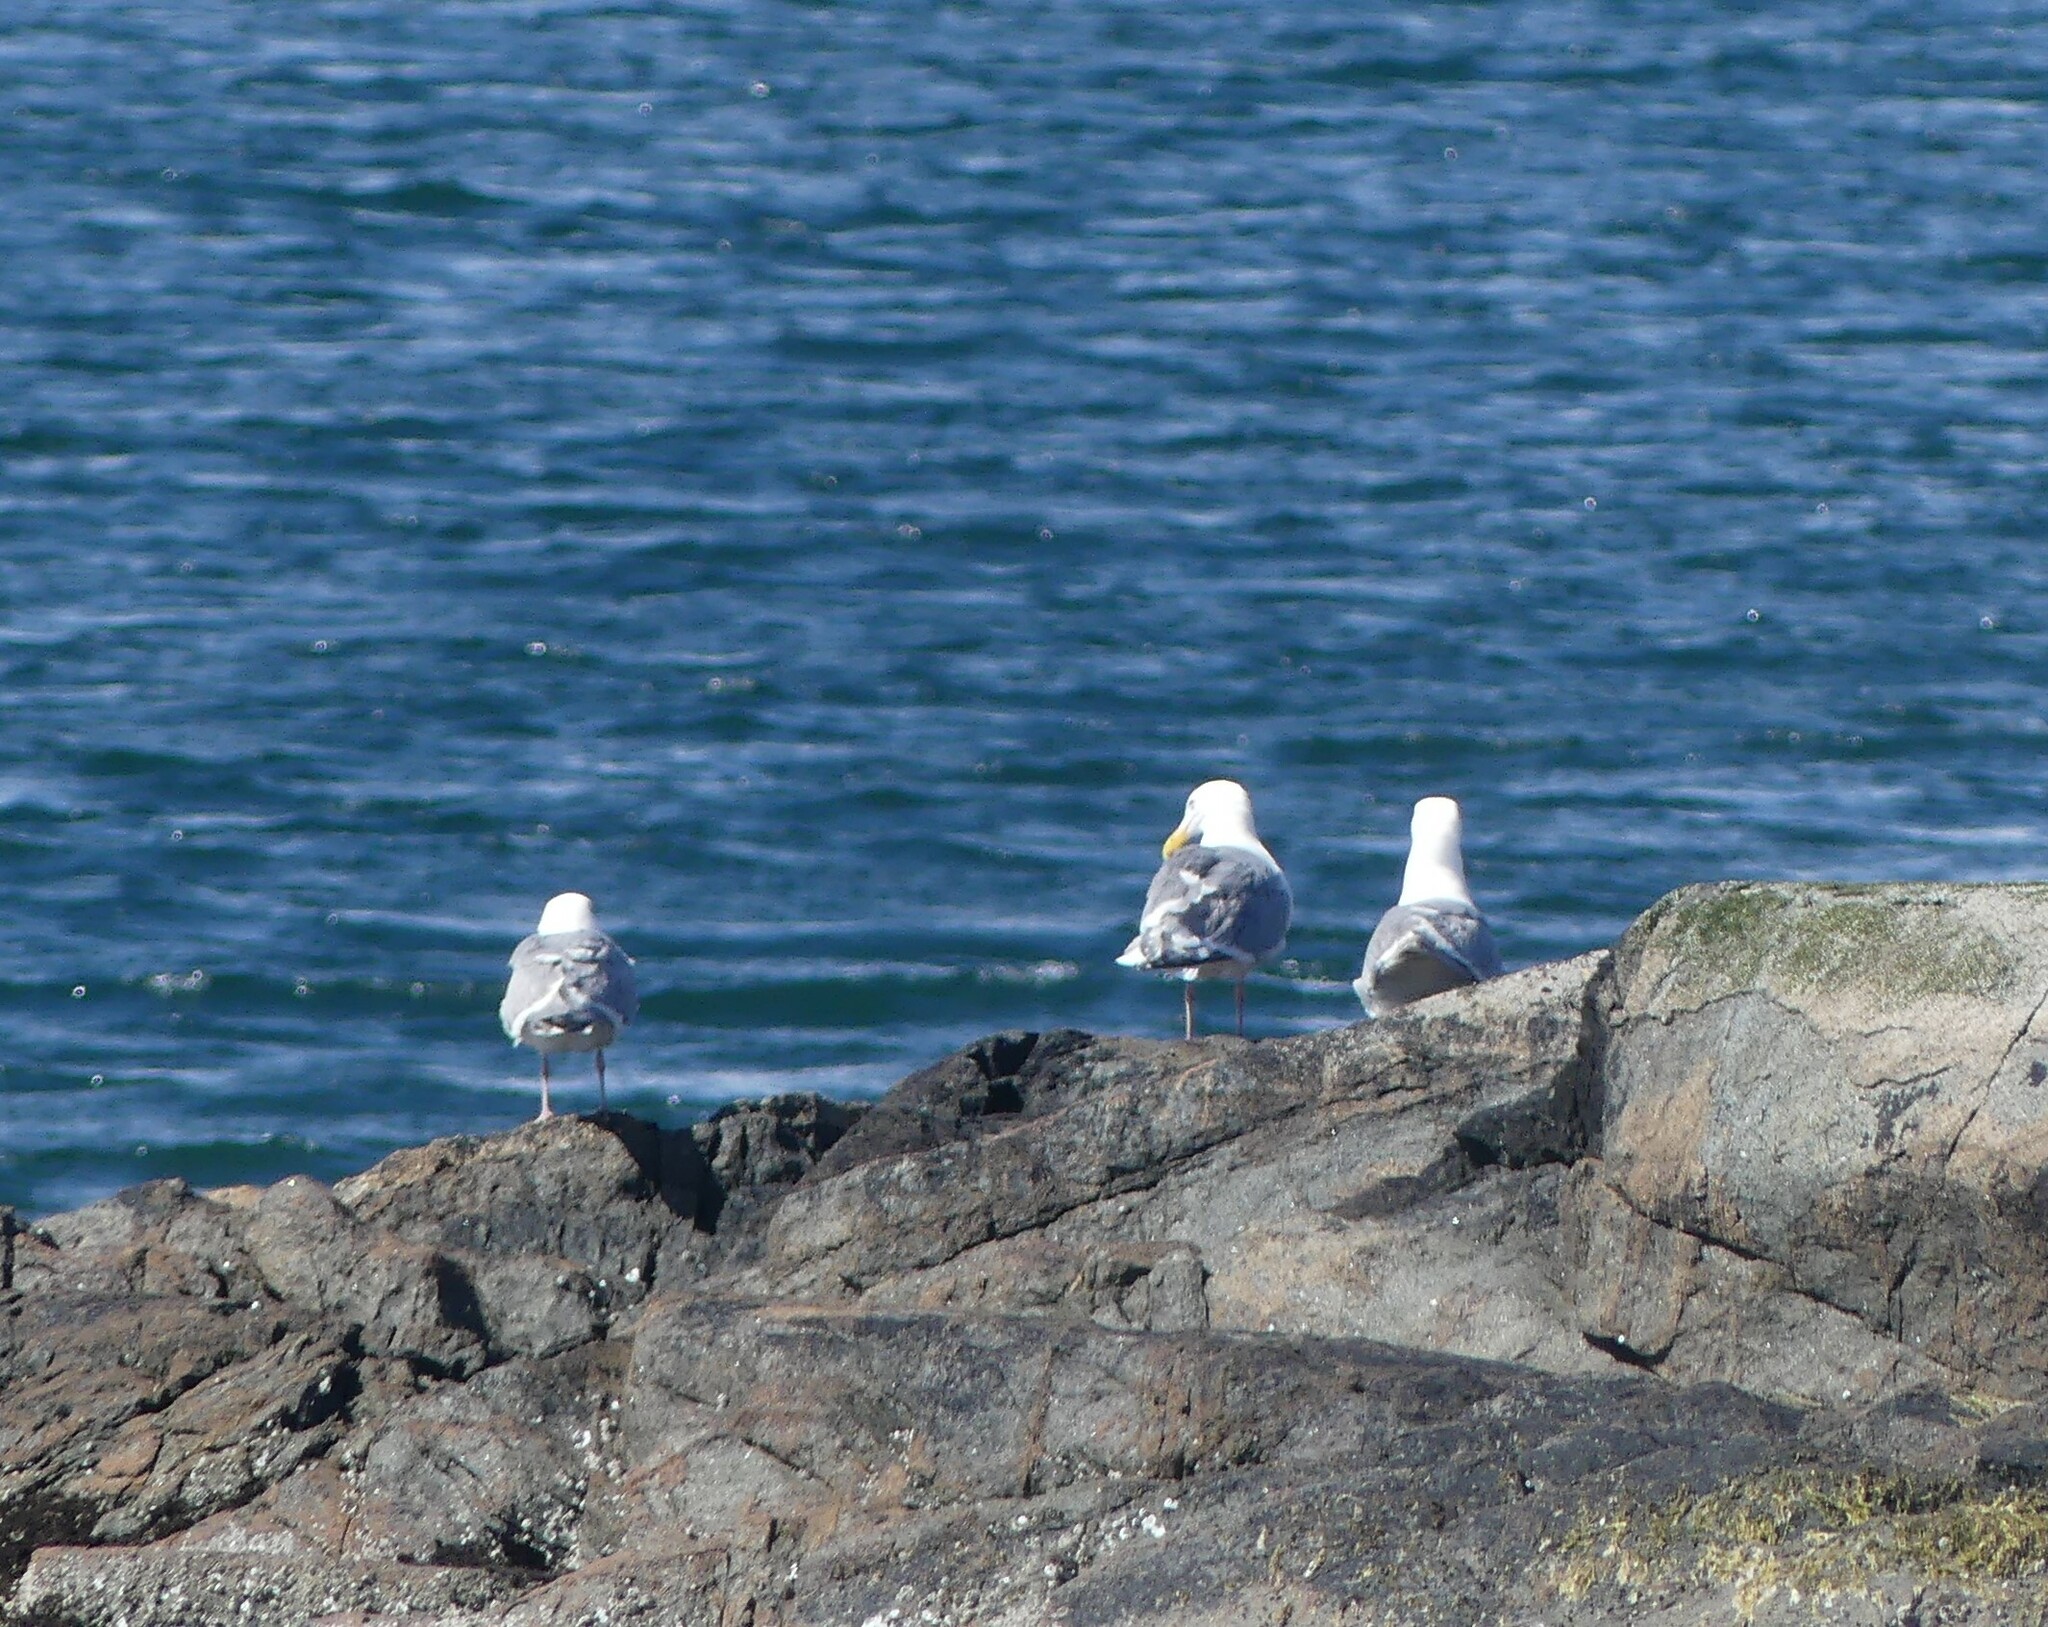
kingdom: Animalia
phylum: Chordata
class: Aves
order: Charadriiformes
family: Laridae
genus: Larus
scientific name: Larus glaucescens
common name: Glaucous-winged gull
